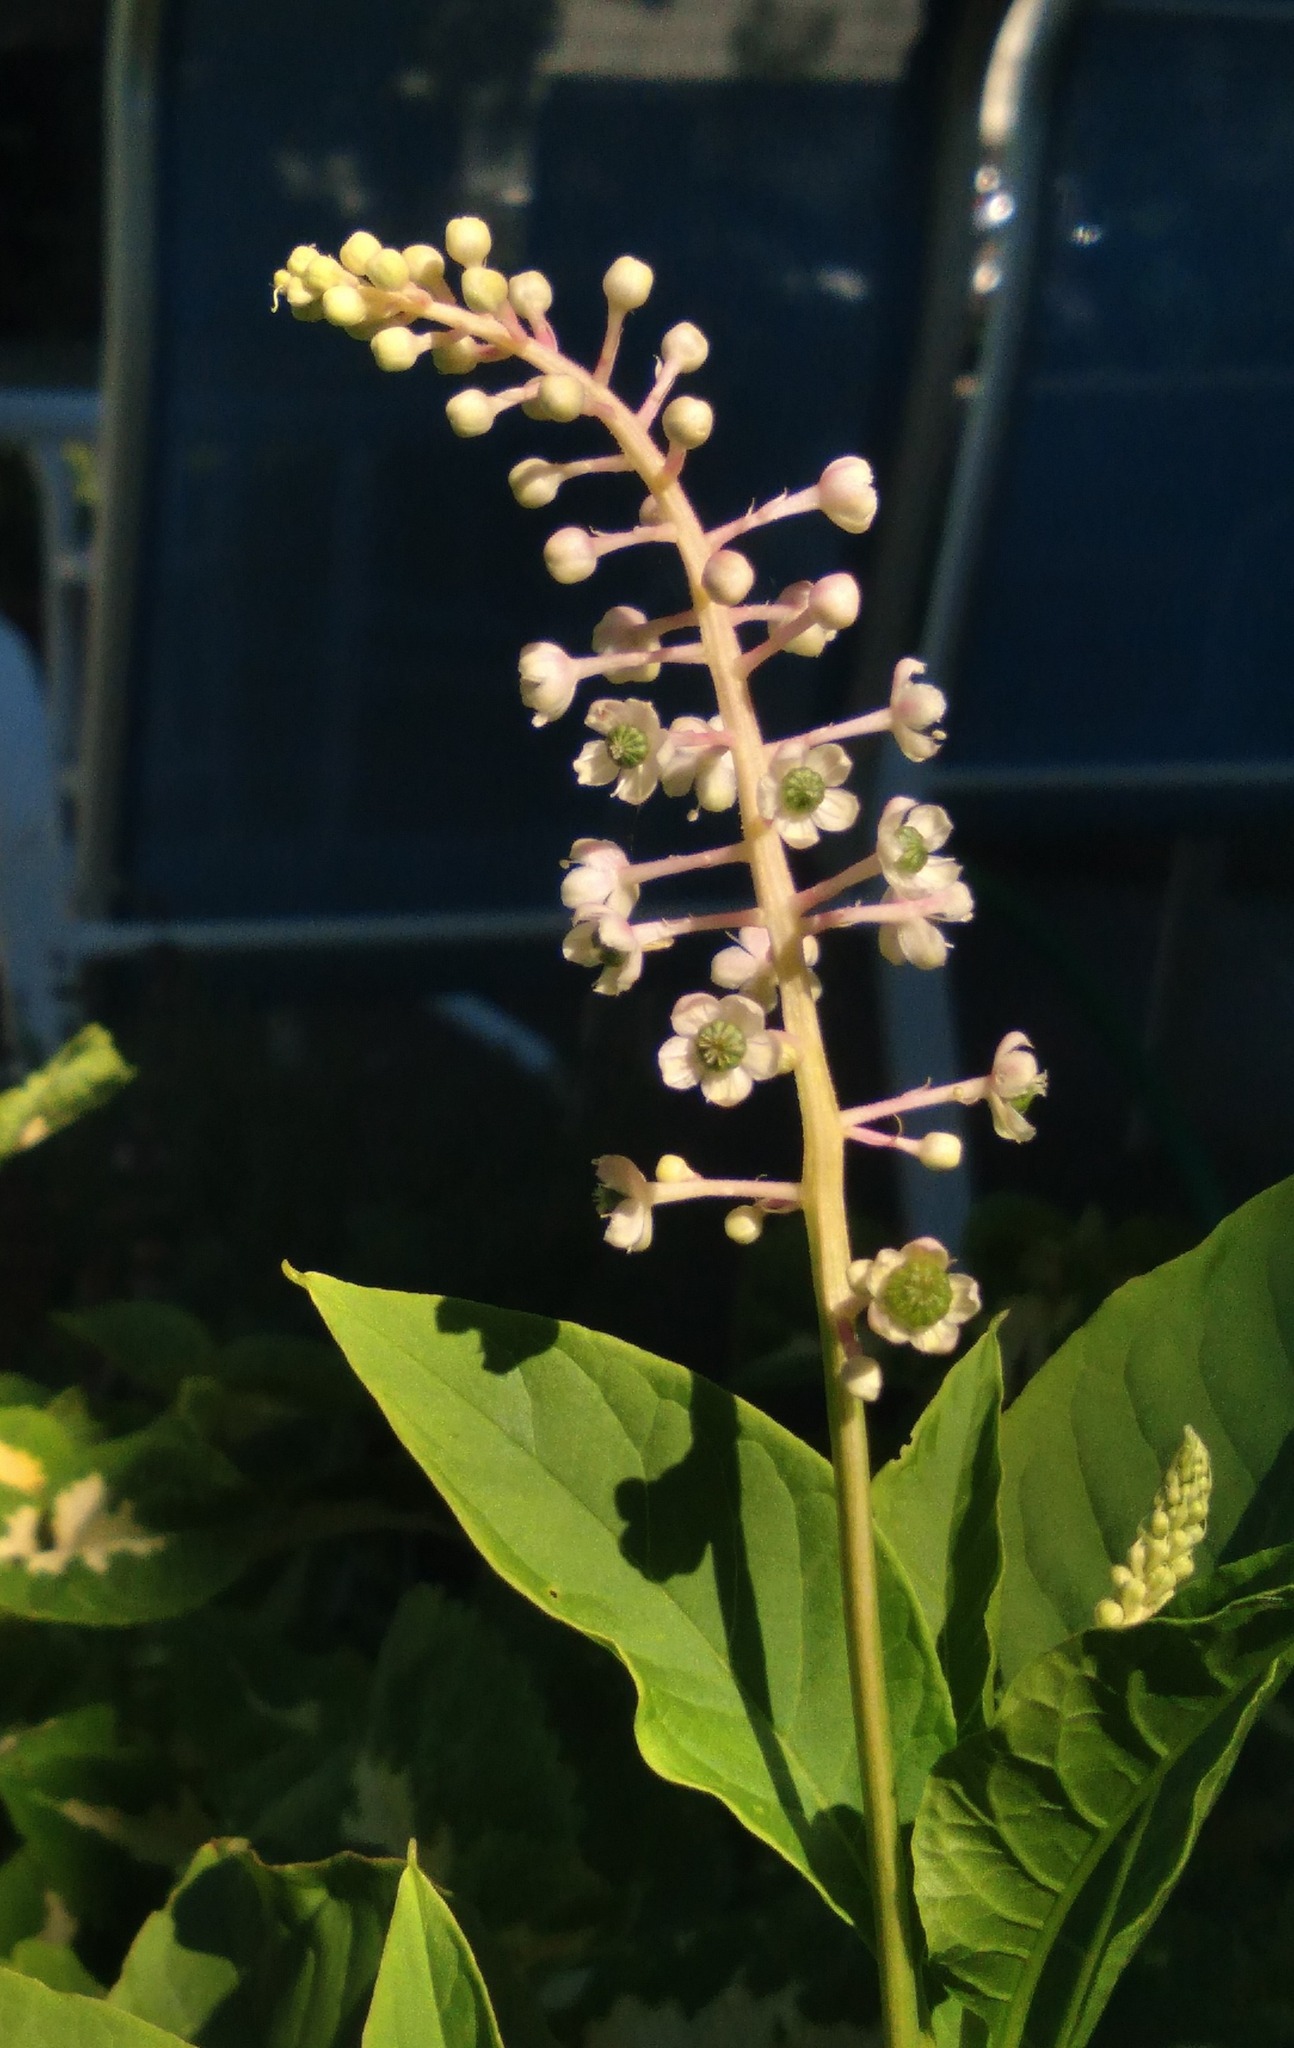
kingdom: Plantae
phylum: Tracheophyta
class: Magnoliopsida
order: Caryophyllales
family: Phytolaccaceae
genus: Phytolacca
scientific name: Phytolacca americana
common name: American pokeweed
